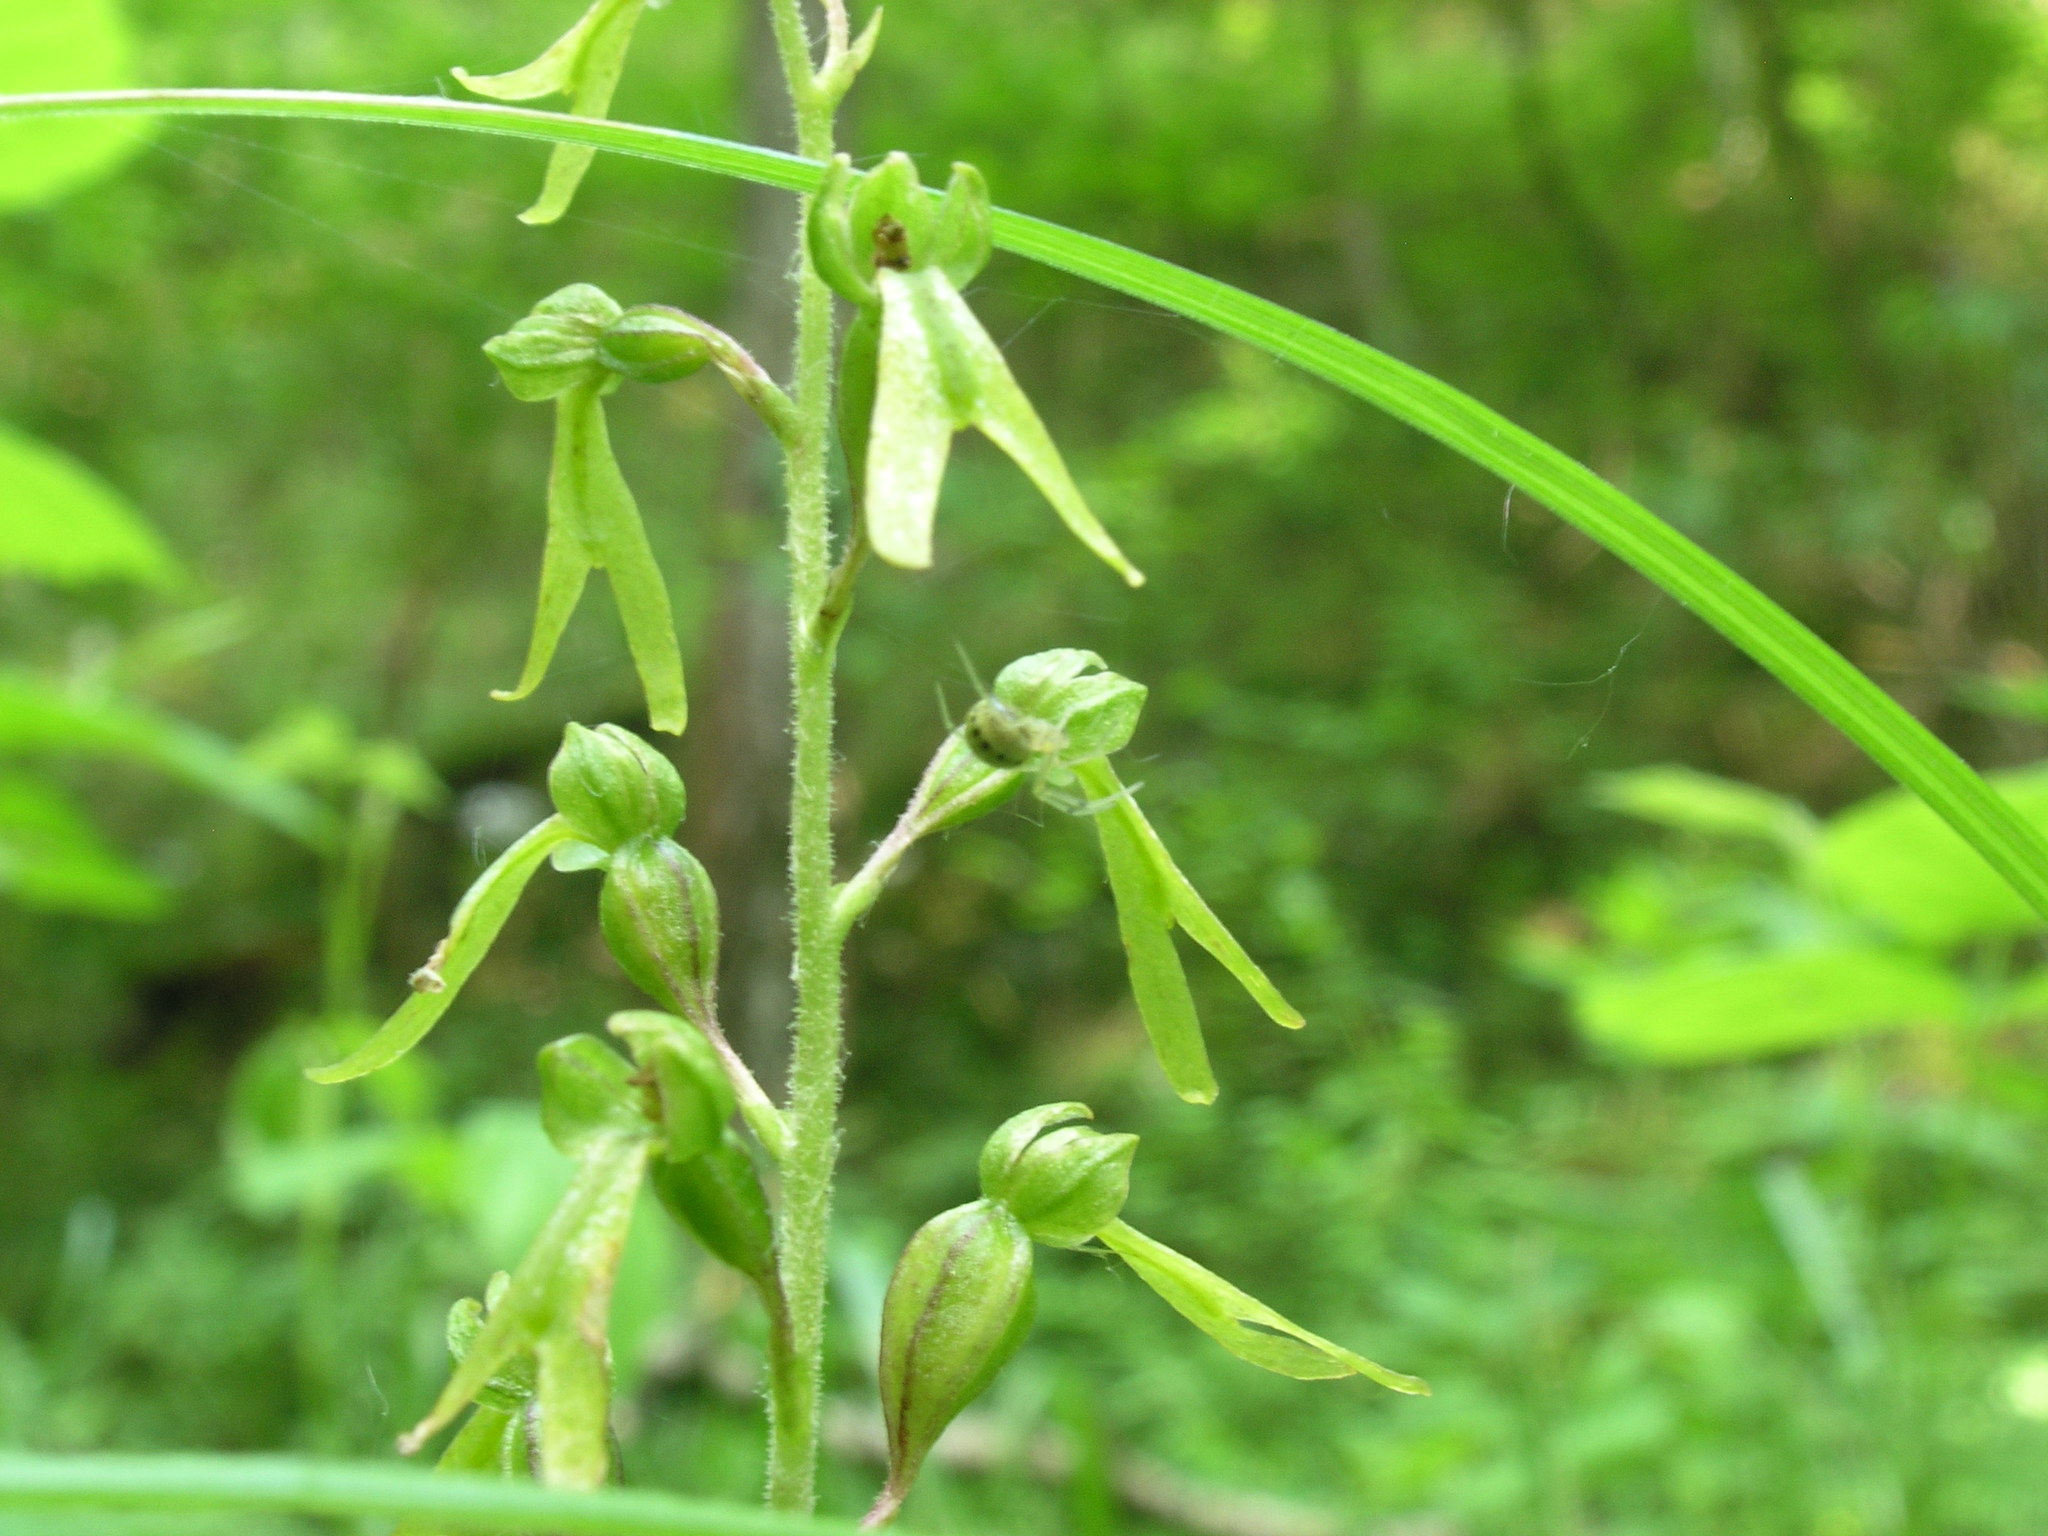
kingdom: Plantae
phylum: Tracheophyta
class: Liliopsida
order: Asparagales
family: Orchidaceae
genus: Neottia
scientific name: Neottia ovata
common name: Common twayblade
